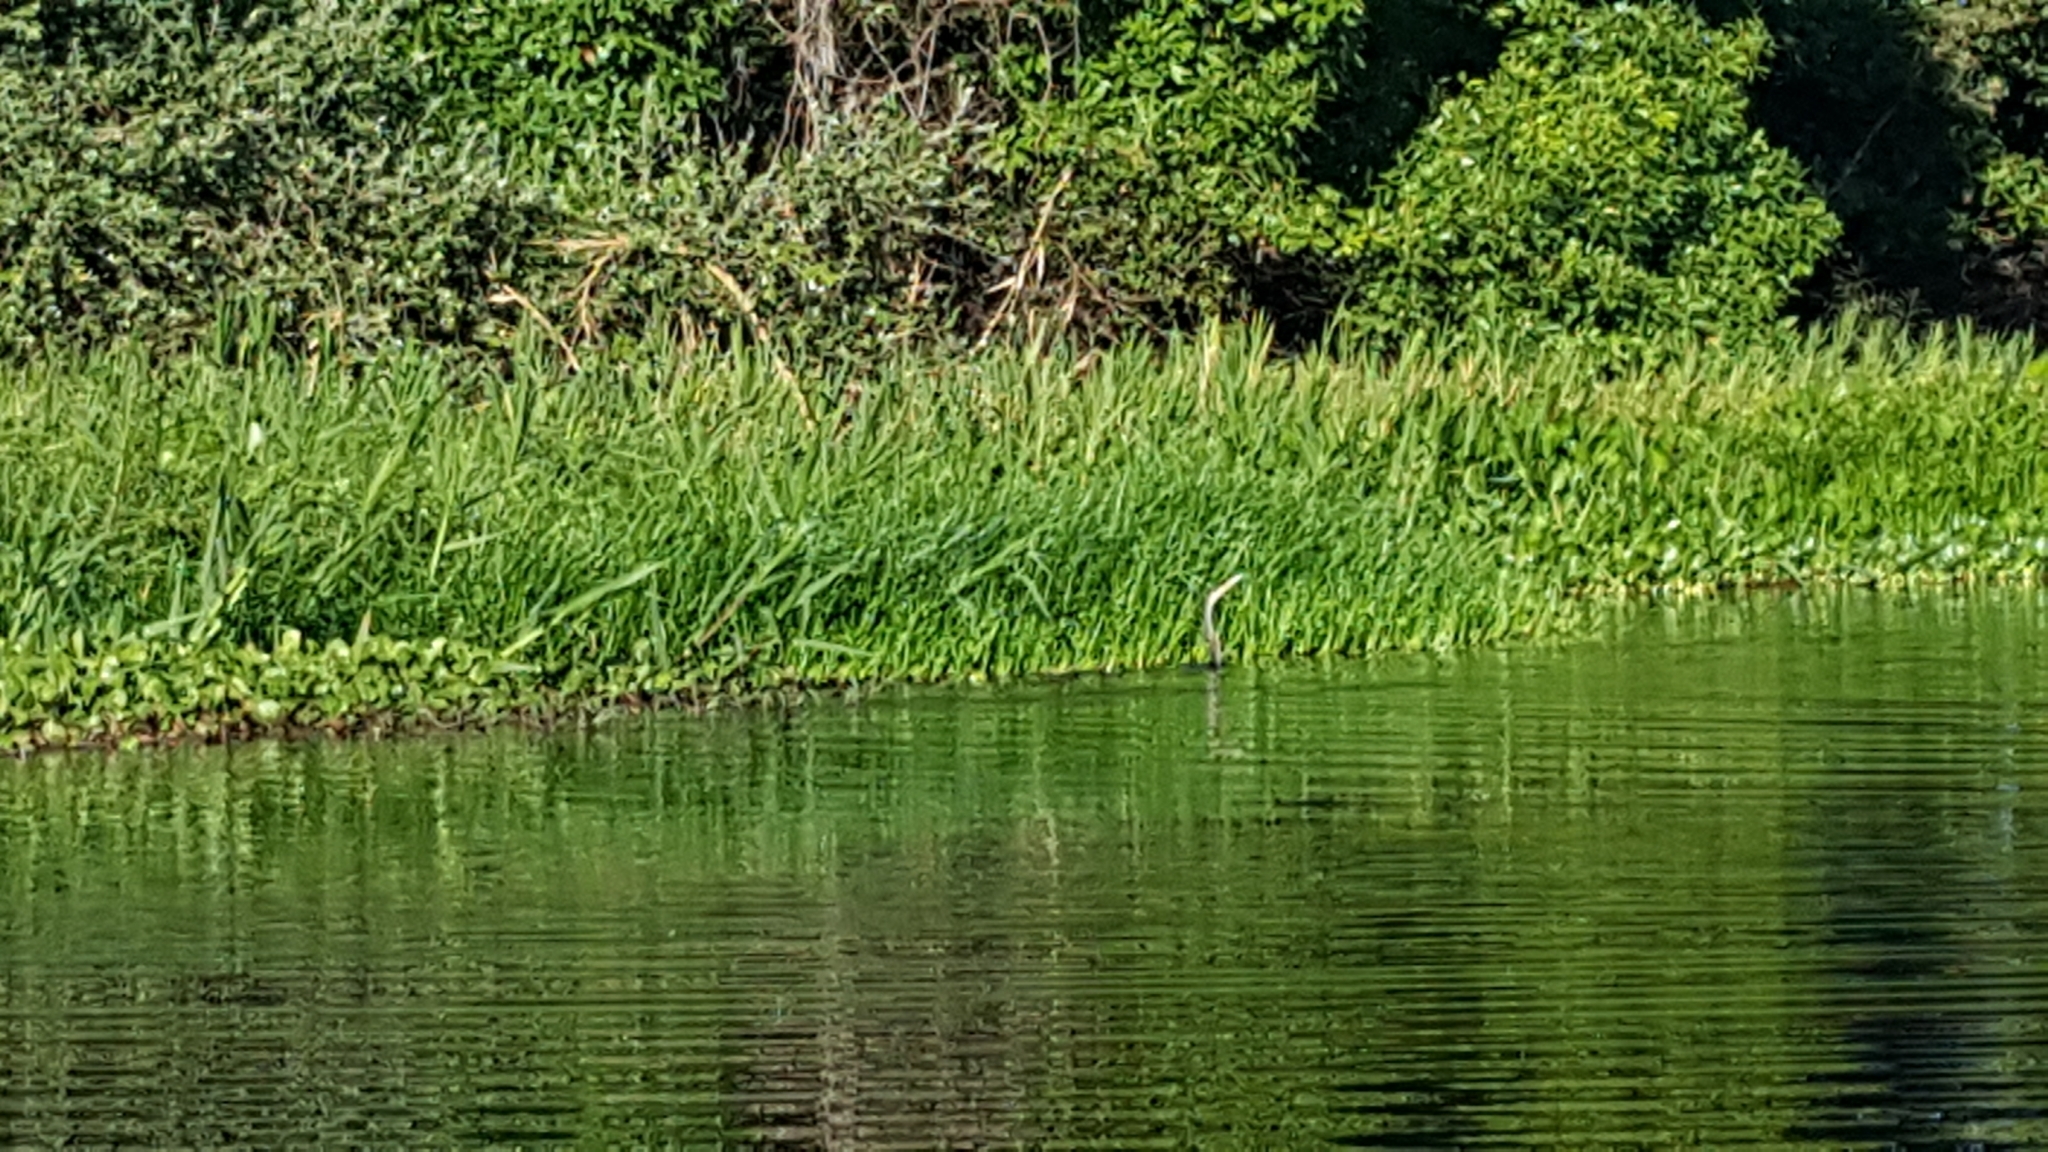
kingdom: Animalia
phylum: Chordata
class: Aves
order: Suliformes
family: Anhingidae
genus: Anhinga
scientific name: Anhinga anhinga
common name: Anhinga
